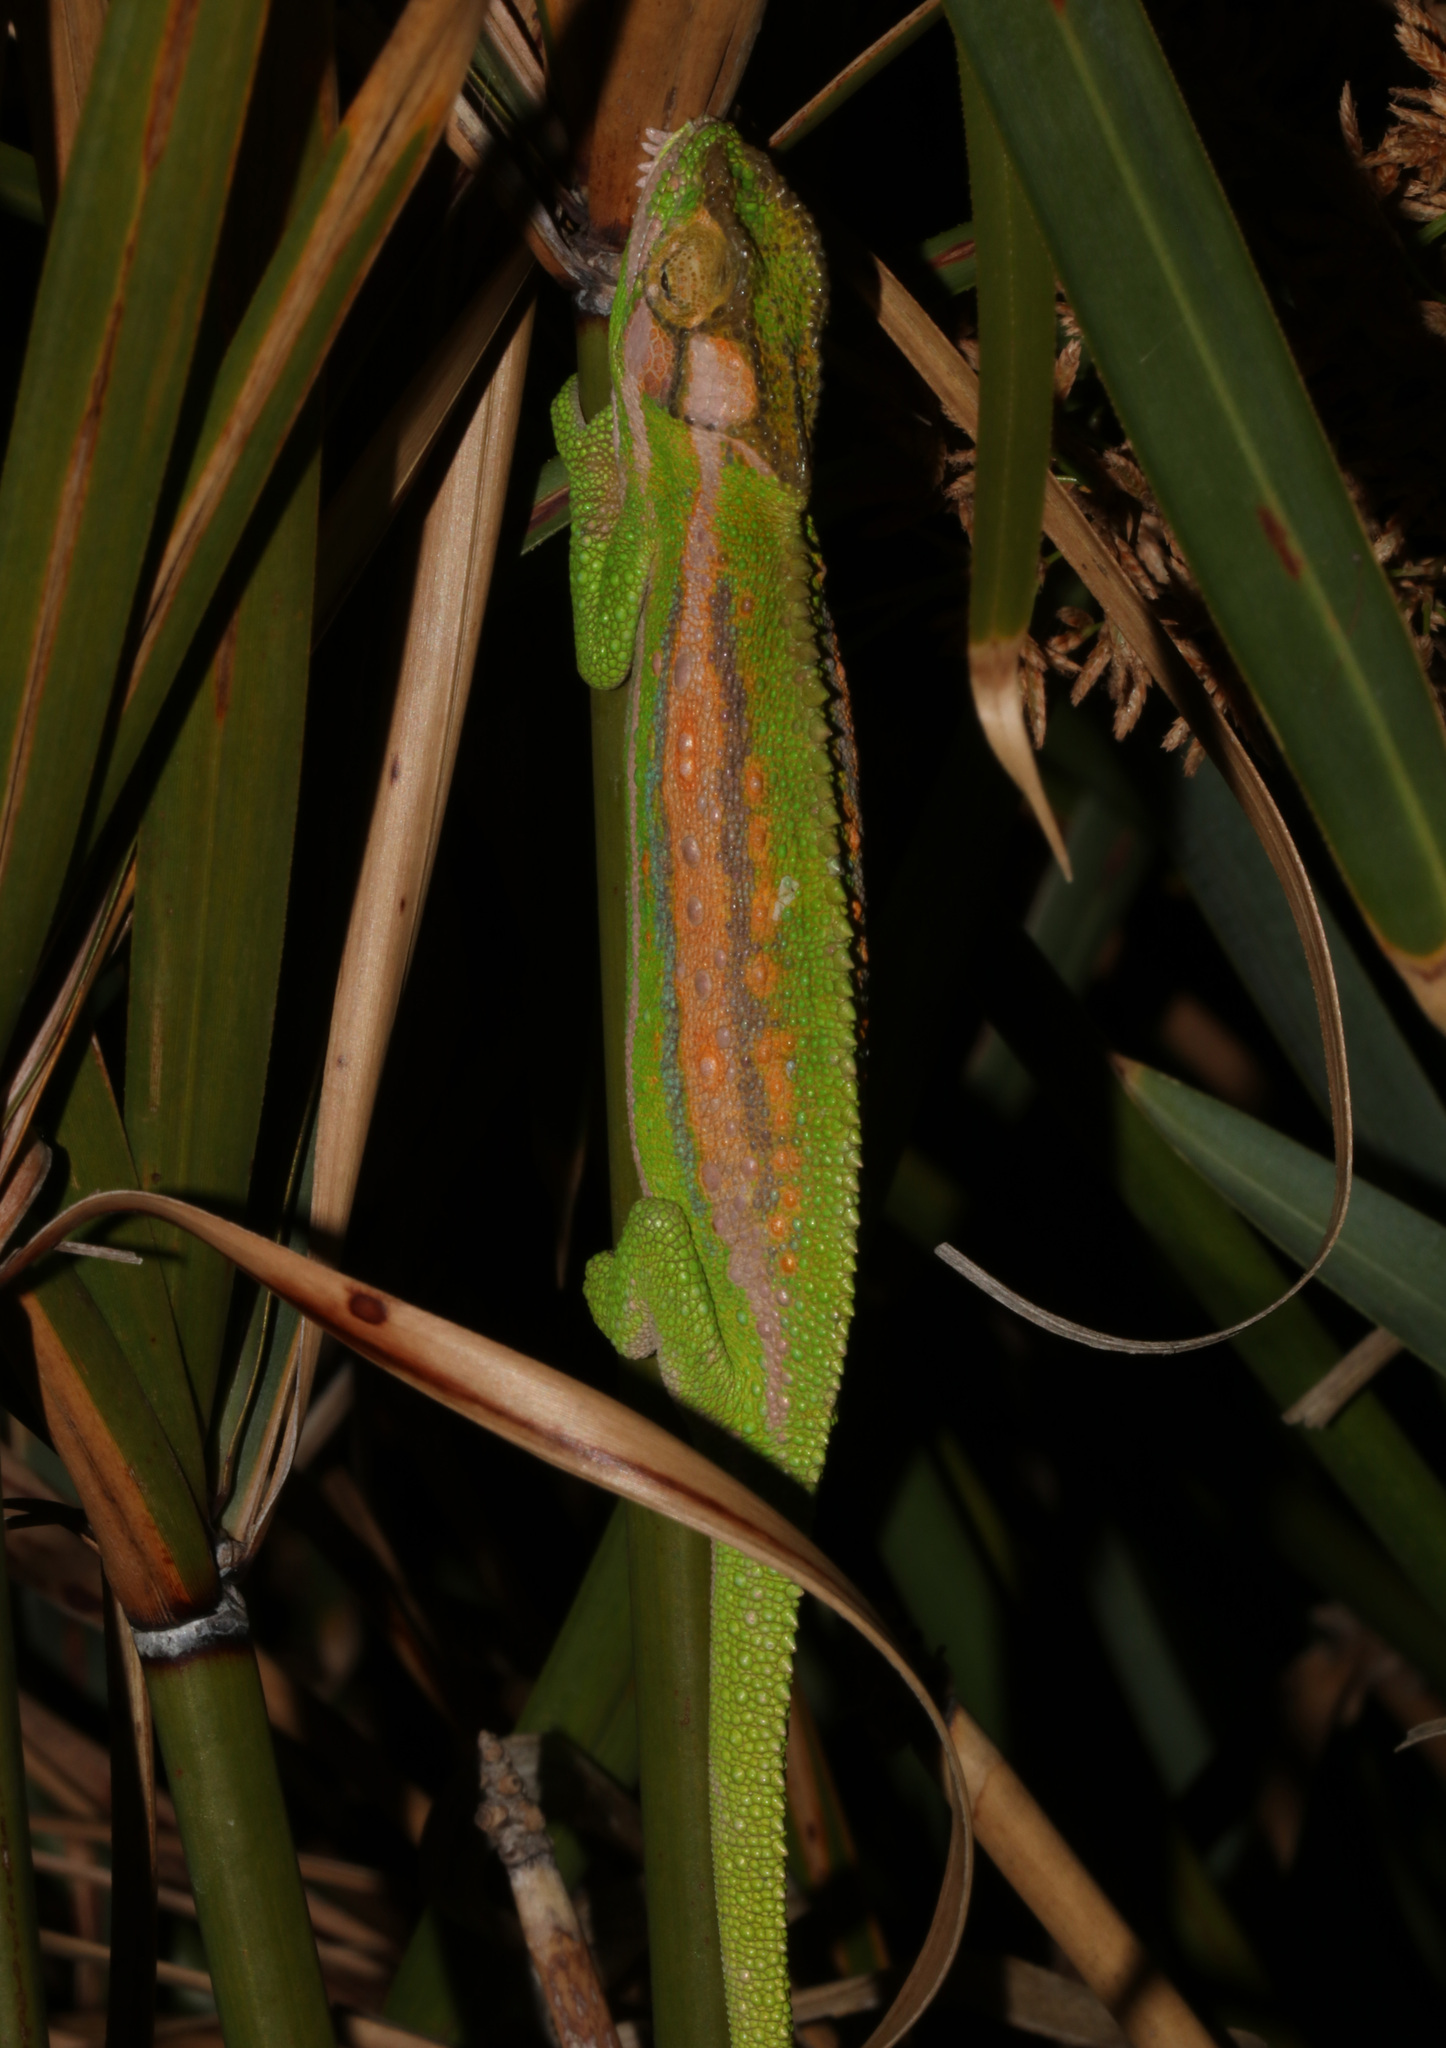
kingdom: Animalia
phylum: Chordata
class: Squamata
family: Chamaeleonidae
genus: Bradypodion
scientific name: Bradypodion pumilum
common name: Cape dwarf chameleon
